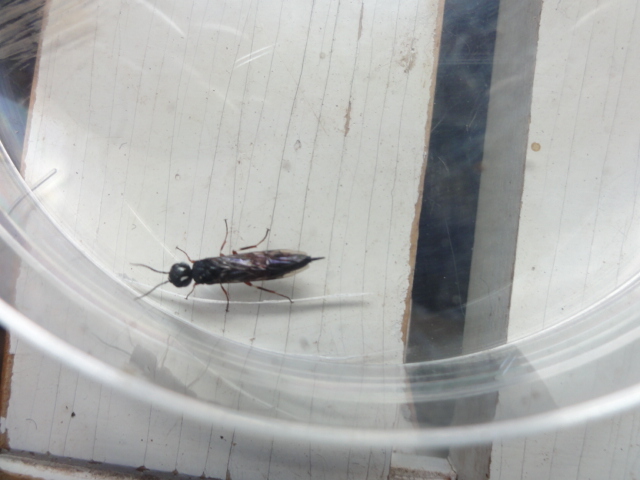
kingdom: Animalia
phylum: Arthropoda
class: Insecta
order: Hymenoptera
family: Xiphydriidae
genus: Xiphydria
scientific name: Xiphydria prolongata
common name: Wasp
